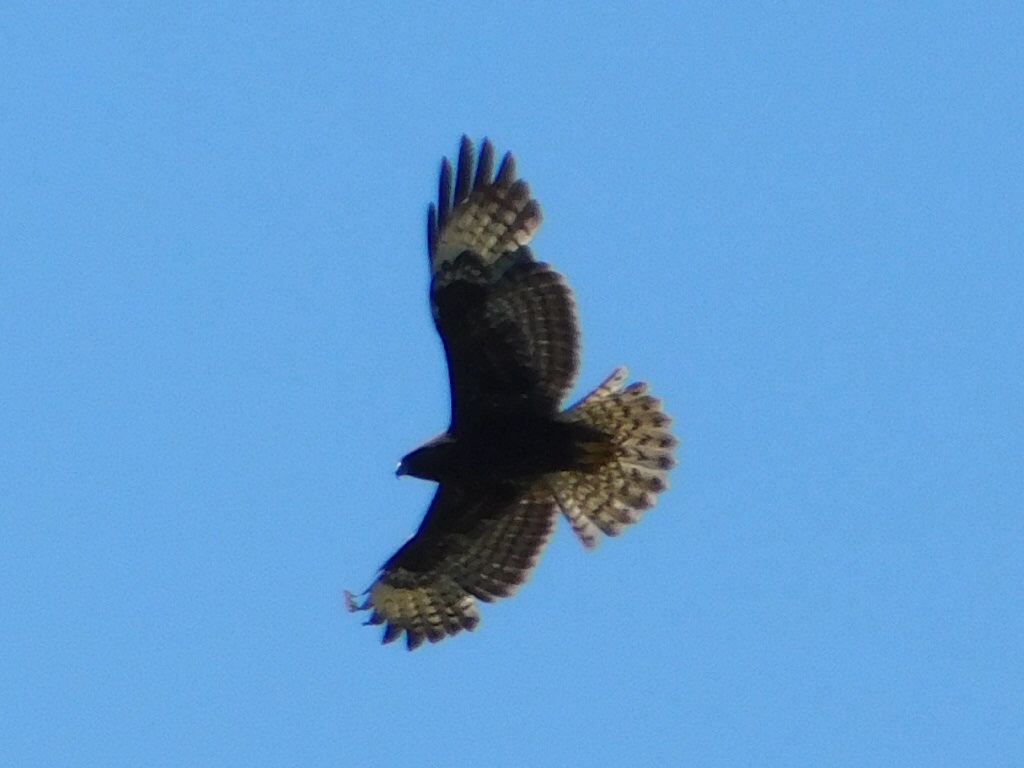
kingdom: Animalia
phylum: Chordata
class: Aves
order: Accipitriformes
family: Accipitridae
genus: Buteo
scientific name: Buteo brachyurus
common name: Short-tailed hawk
